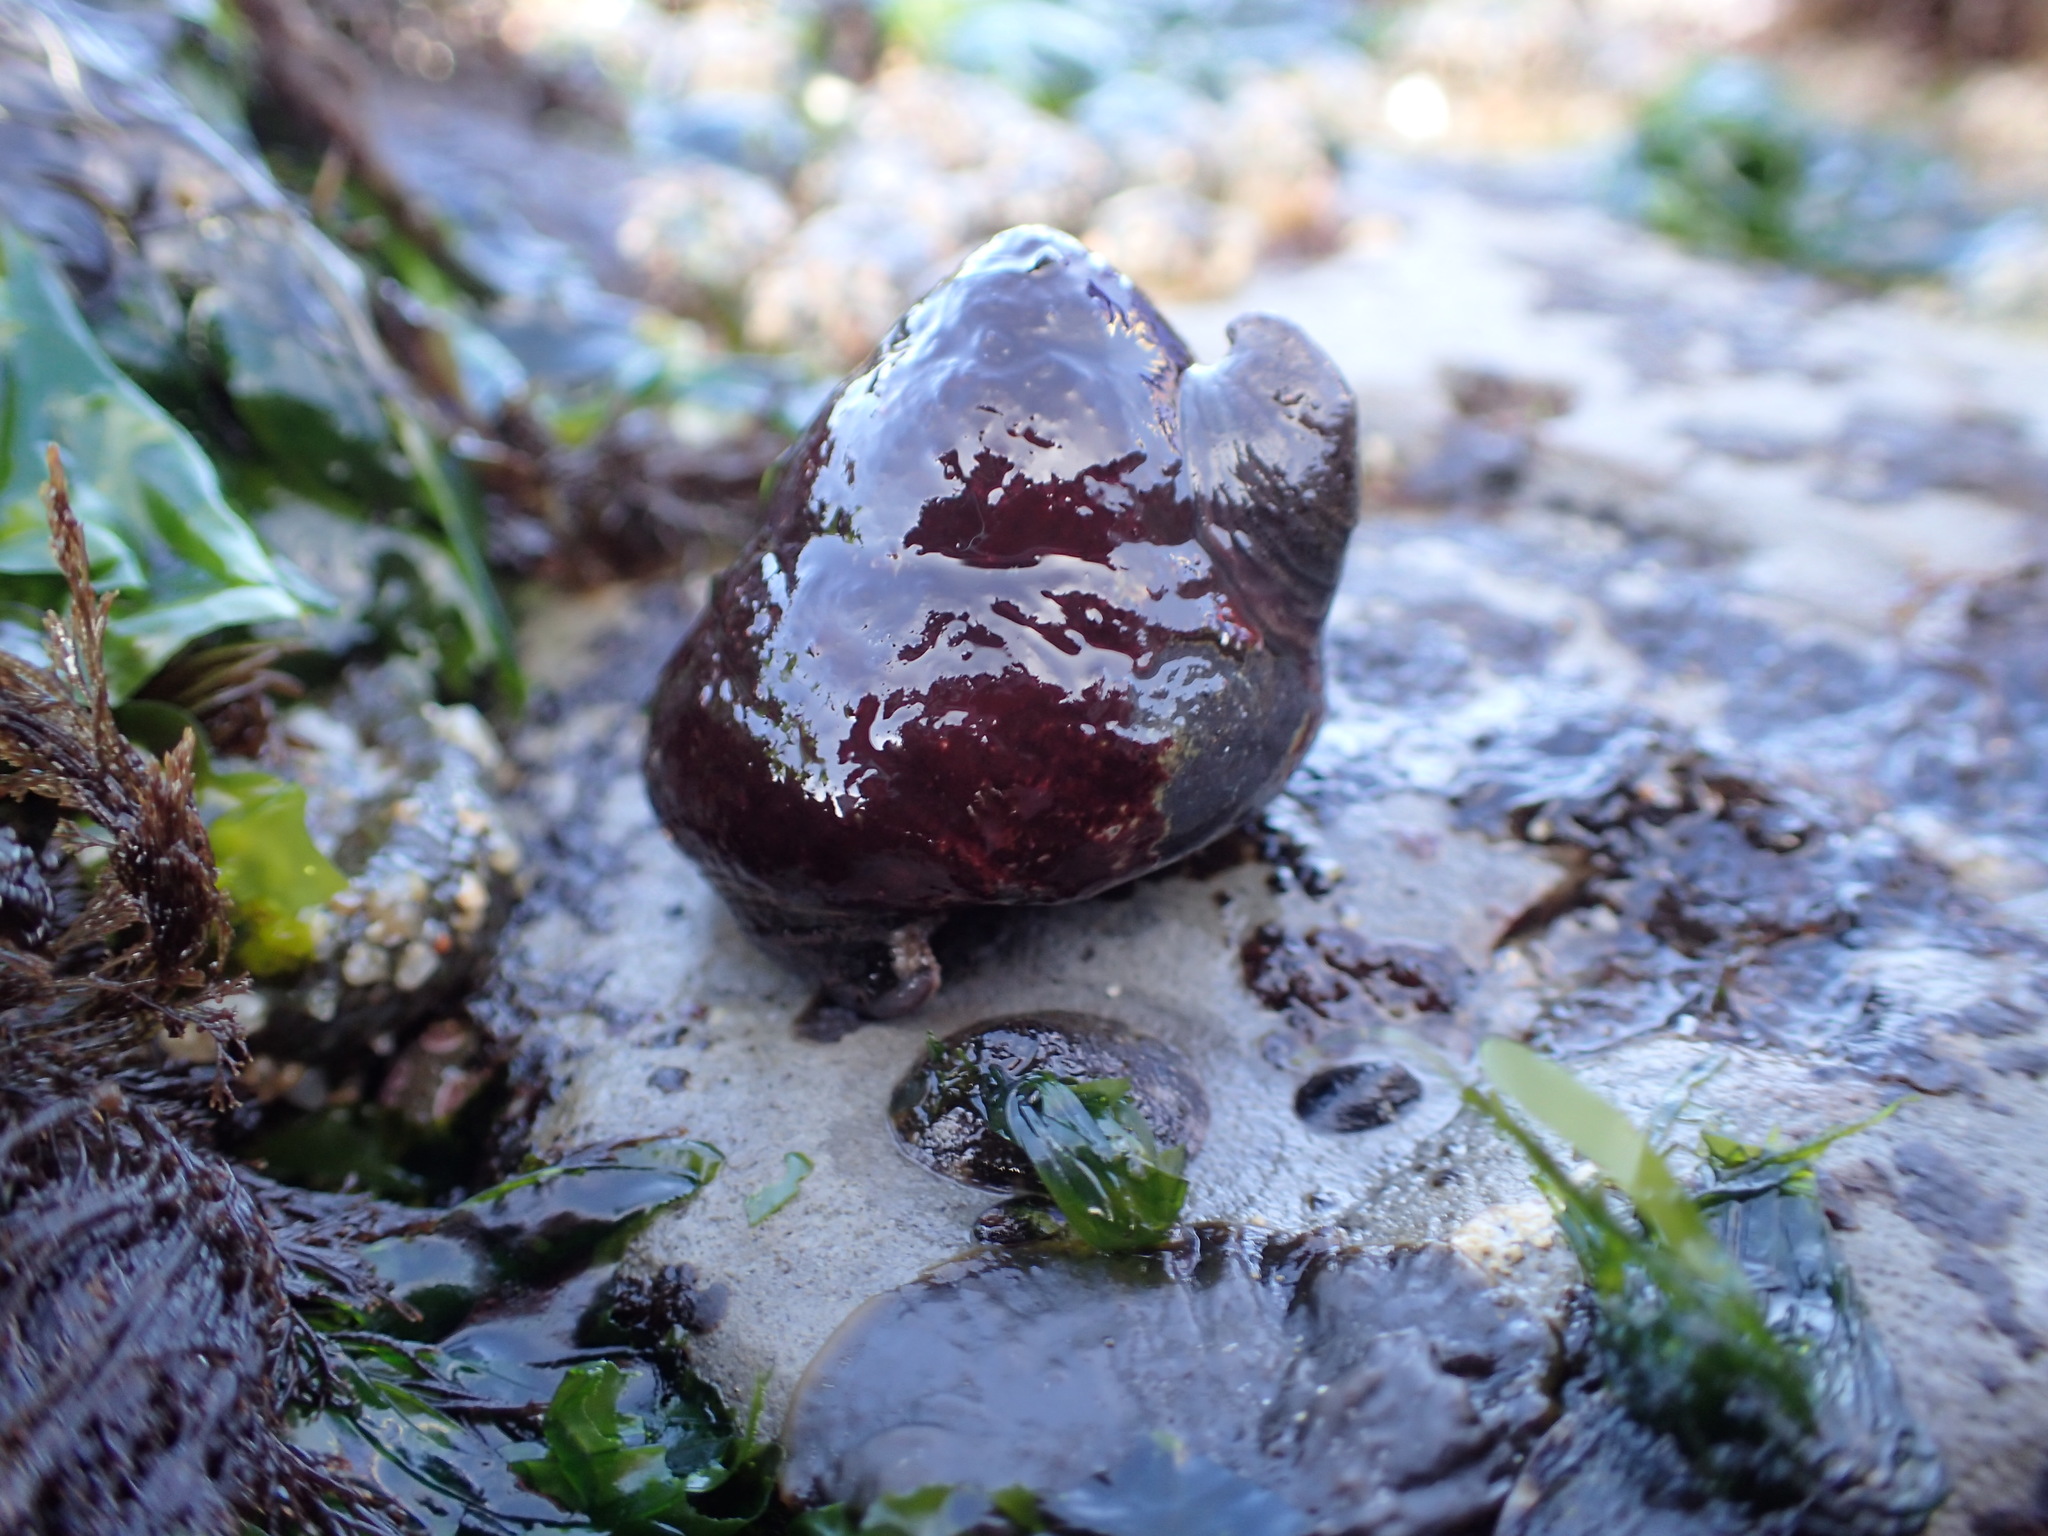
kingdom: Animalia
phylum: Mollusca
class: Gastropoda
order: Trochida
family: Tegulidae
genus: Tegula
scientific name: Tegula brunnea
